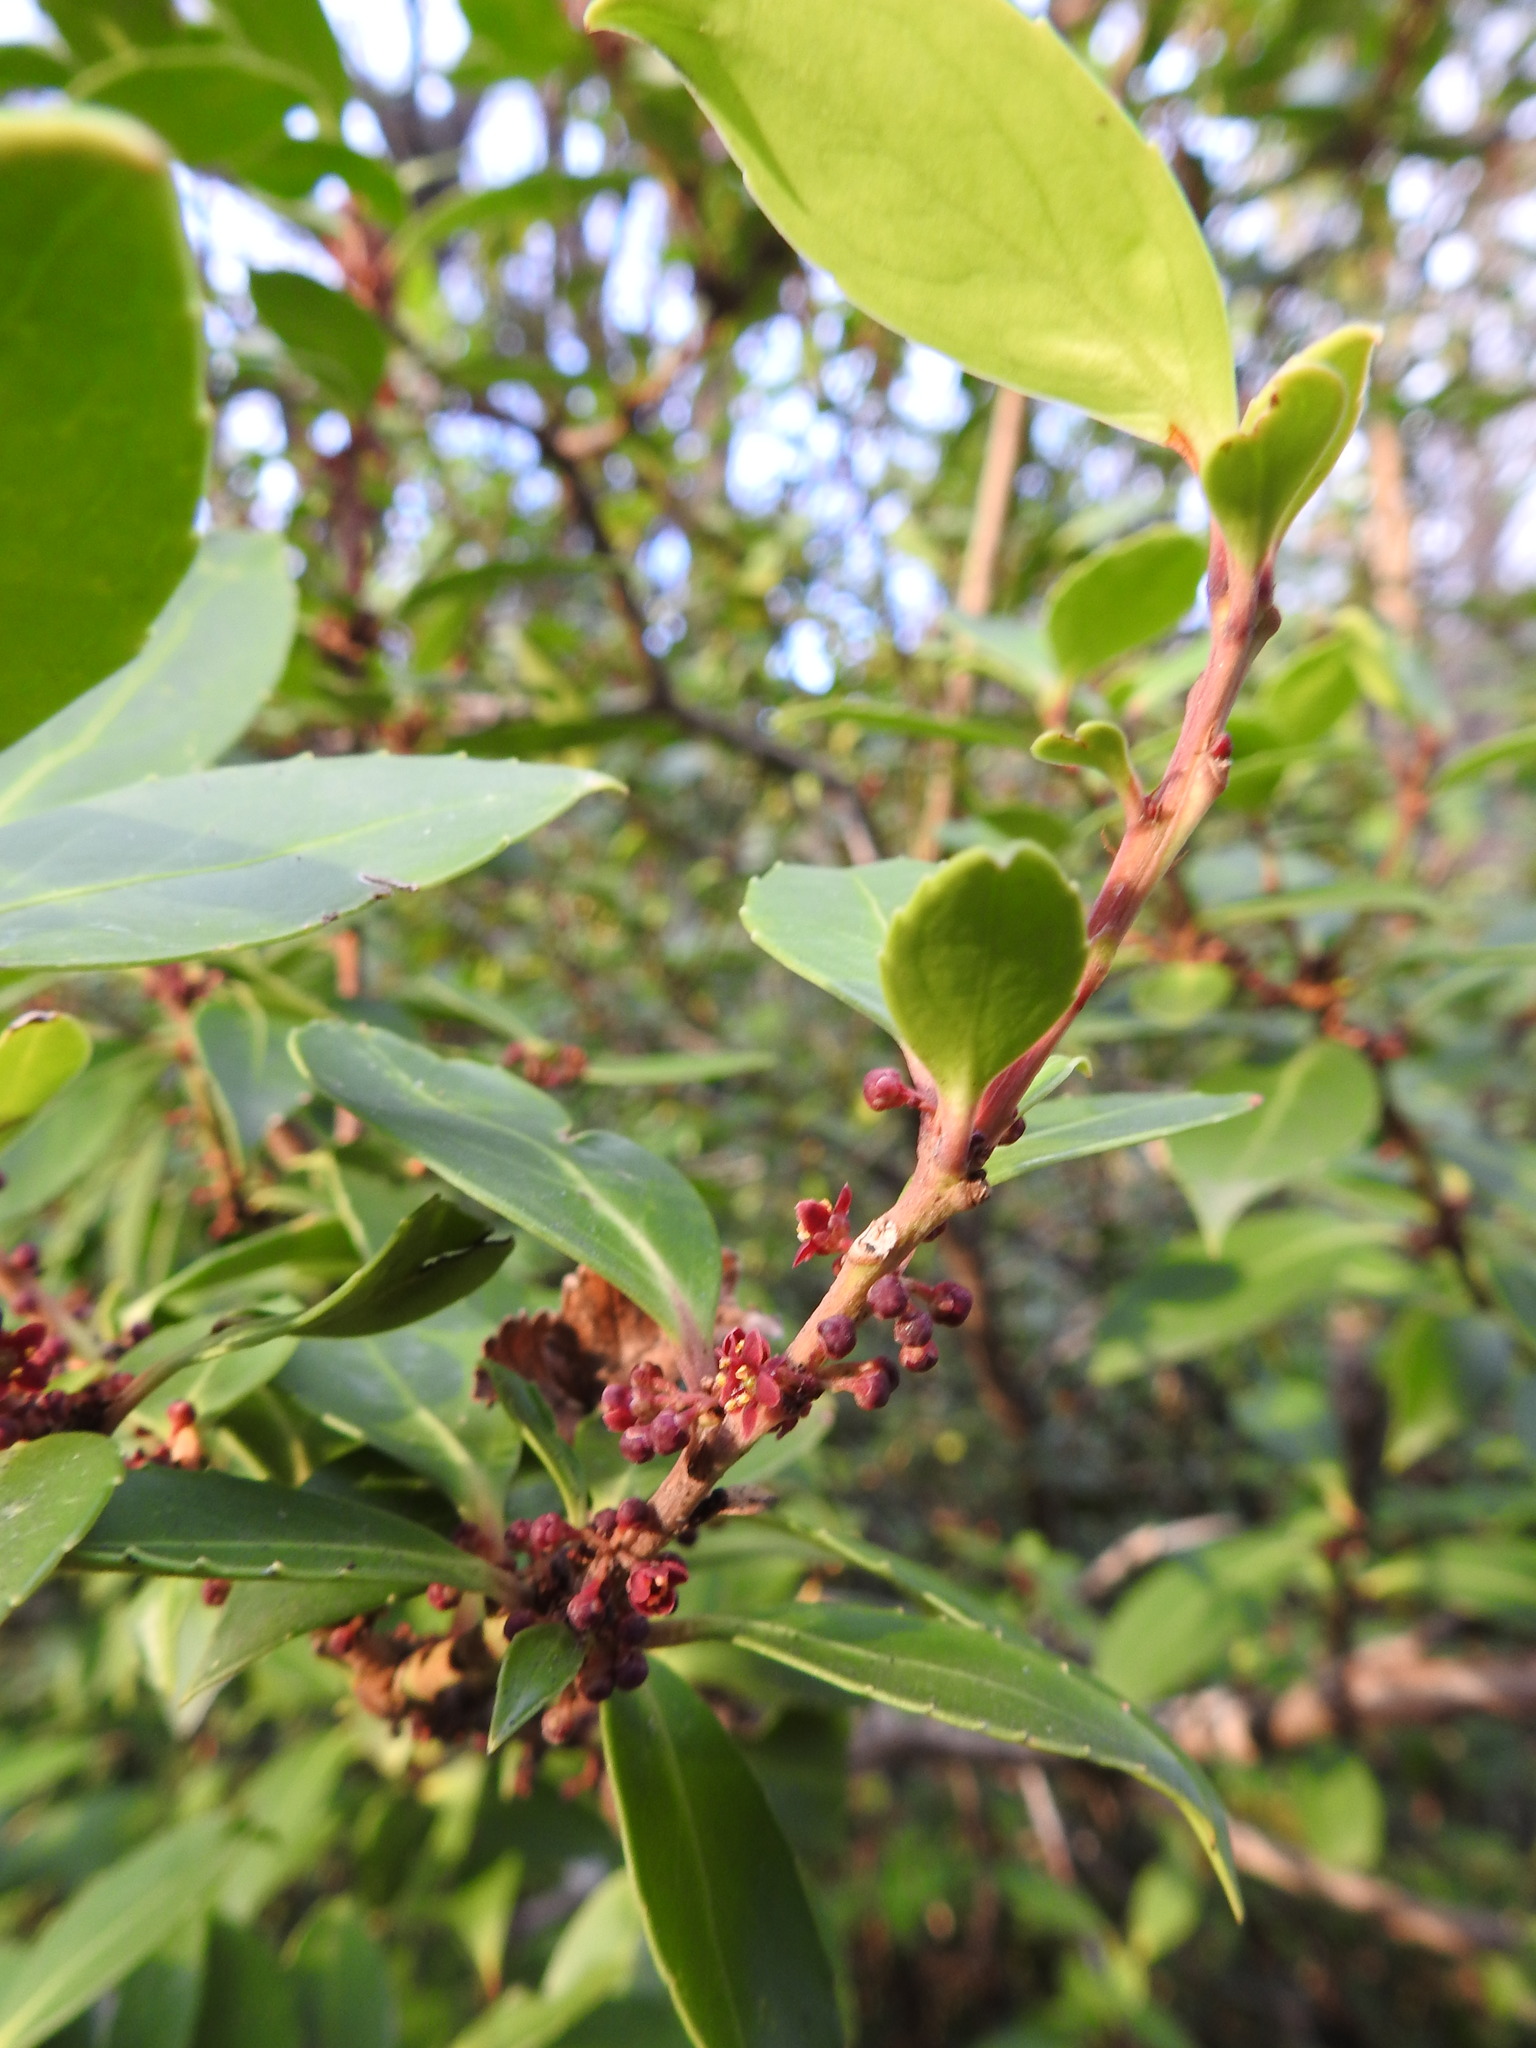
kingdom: Plantae
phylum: Tracheophyta
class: Magnoliopsida
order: Celastrales
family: Celastraceae
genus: Maytenus
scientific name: Maytenus magellanica
